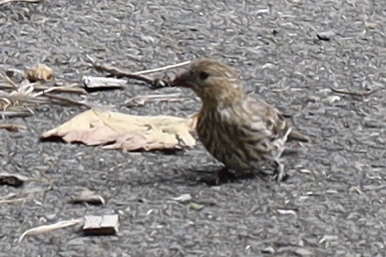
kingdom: Animalia
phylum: Chordata
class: Aves
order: Passeriformes
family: Fringillidae
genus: Haemorhous
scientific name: Haemorhous mexicanus
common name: House finch
